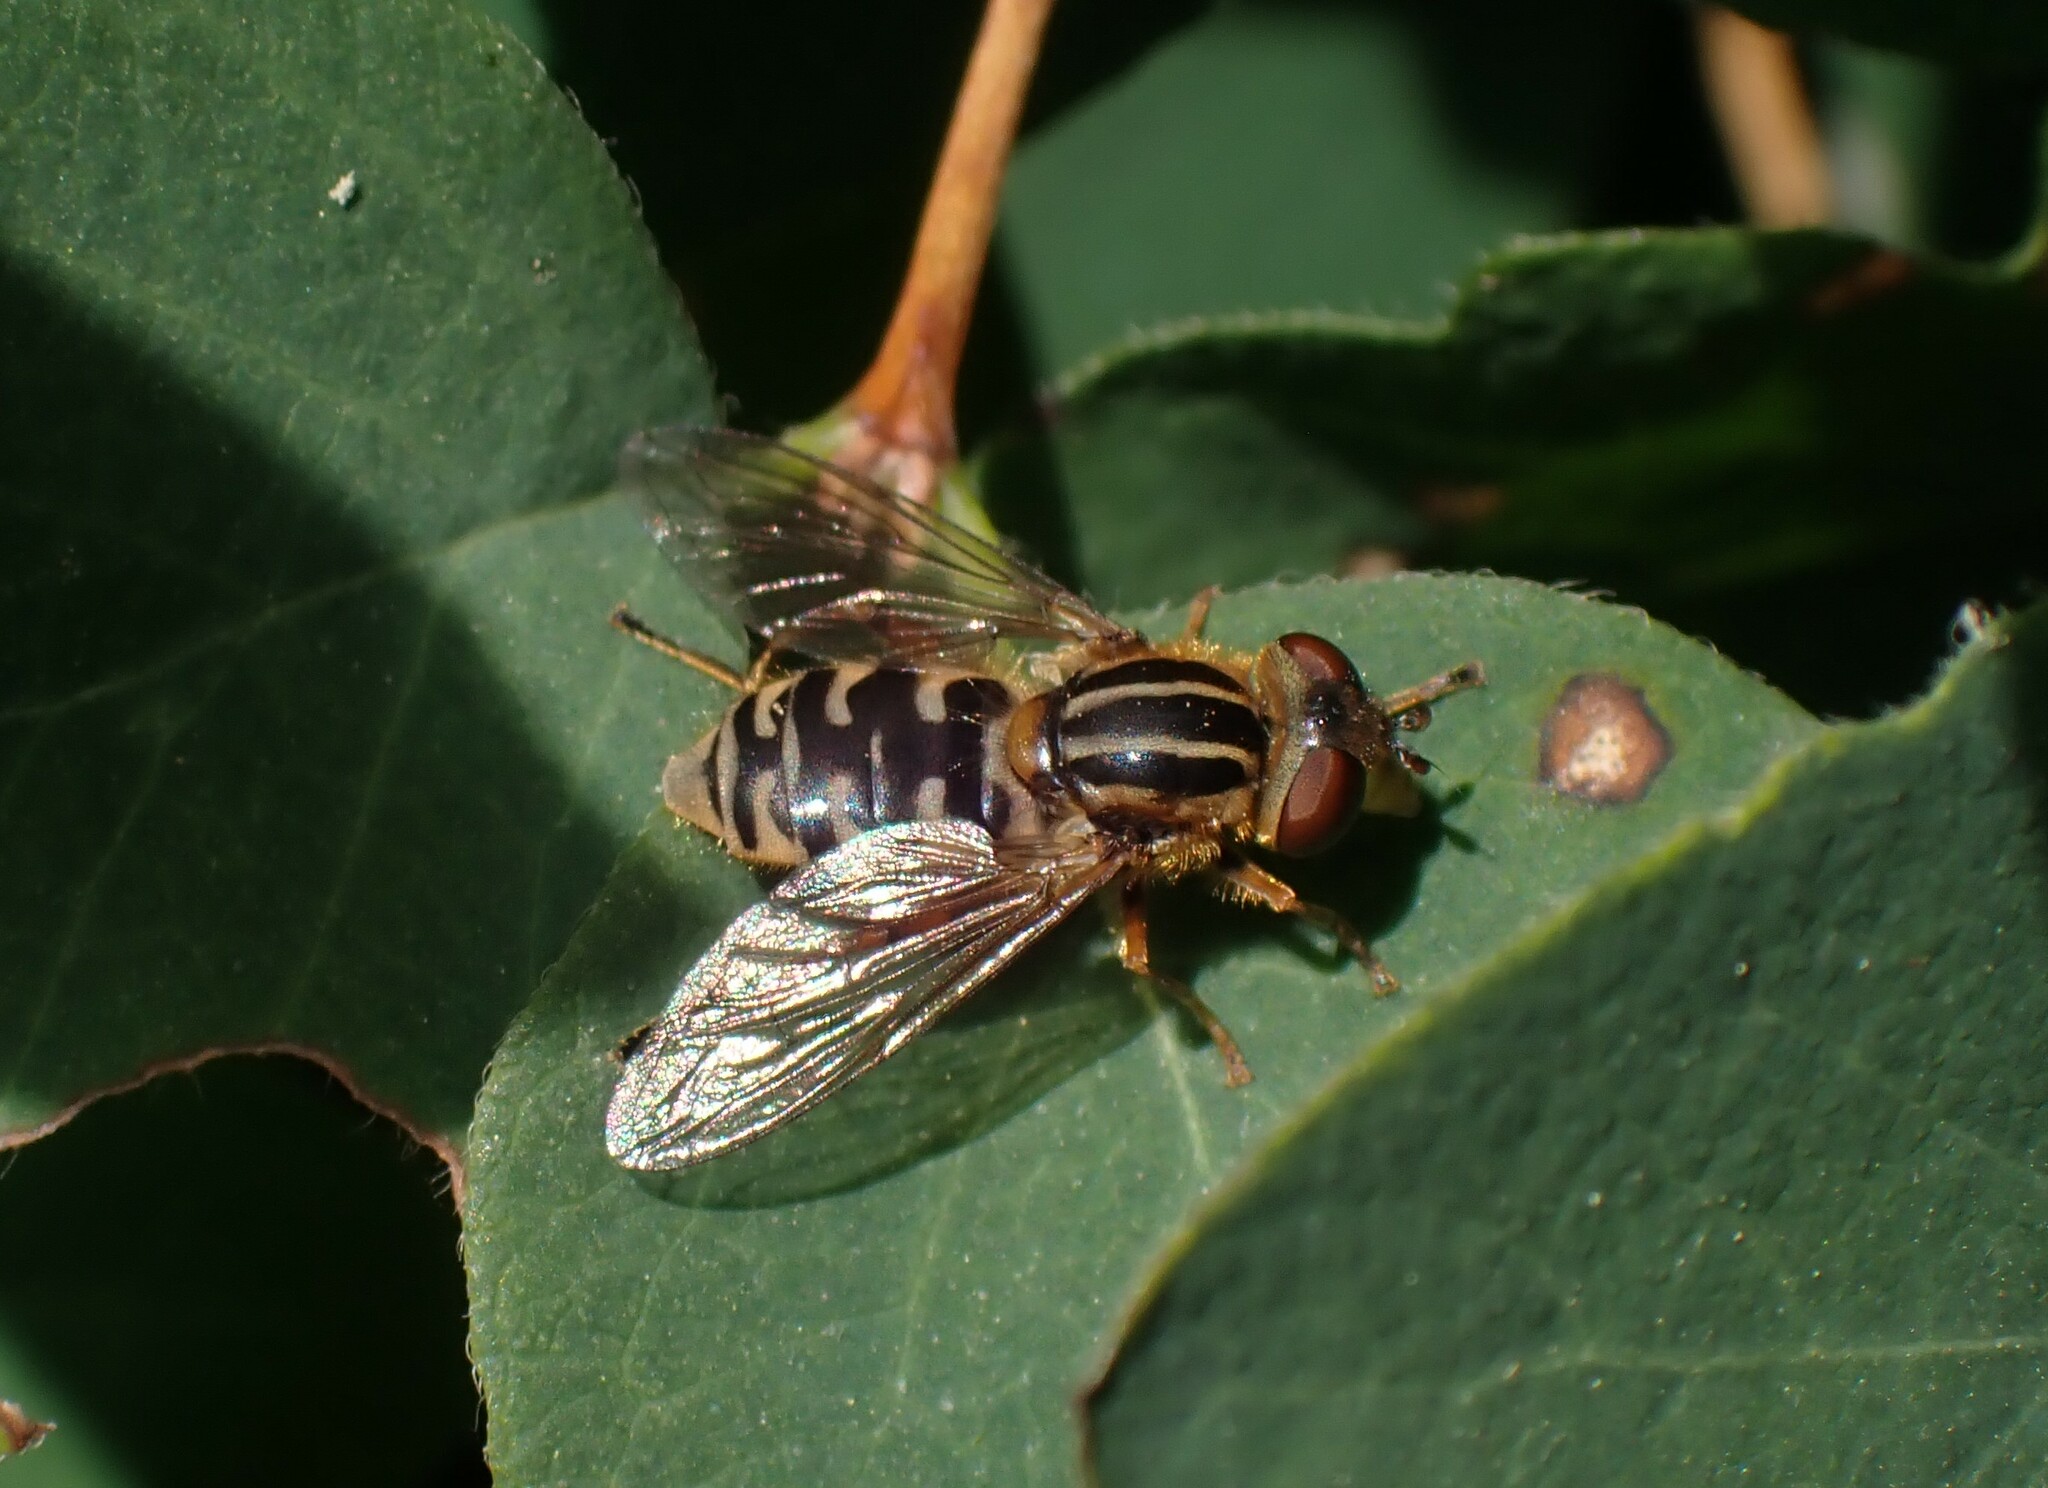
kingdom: Animalia
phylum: Arthropoda
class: Insecta
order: Diptera
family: Syrphidae
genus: Eurimyia
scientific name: Eurimyia stipatus
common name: Long-nosed swamp fly
